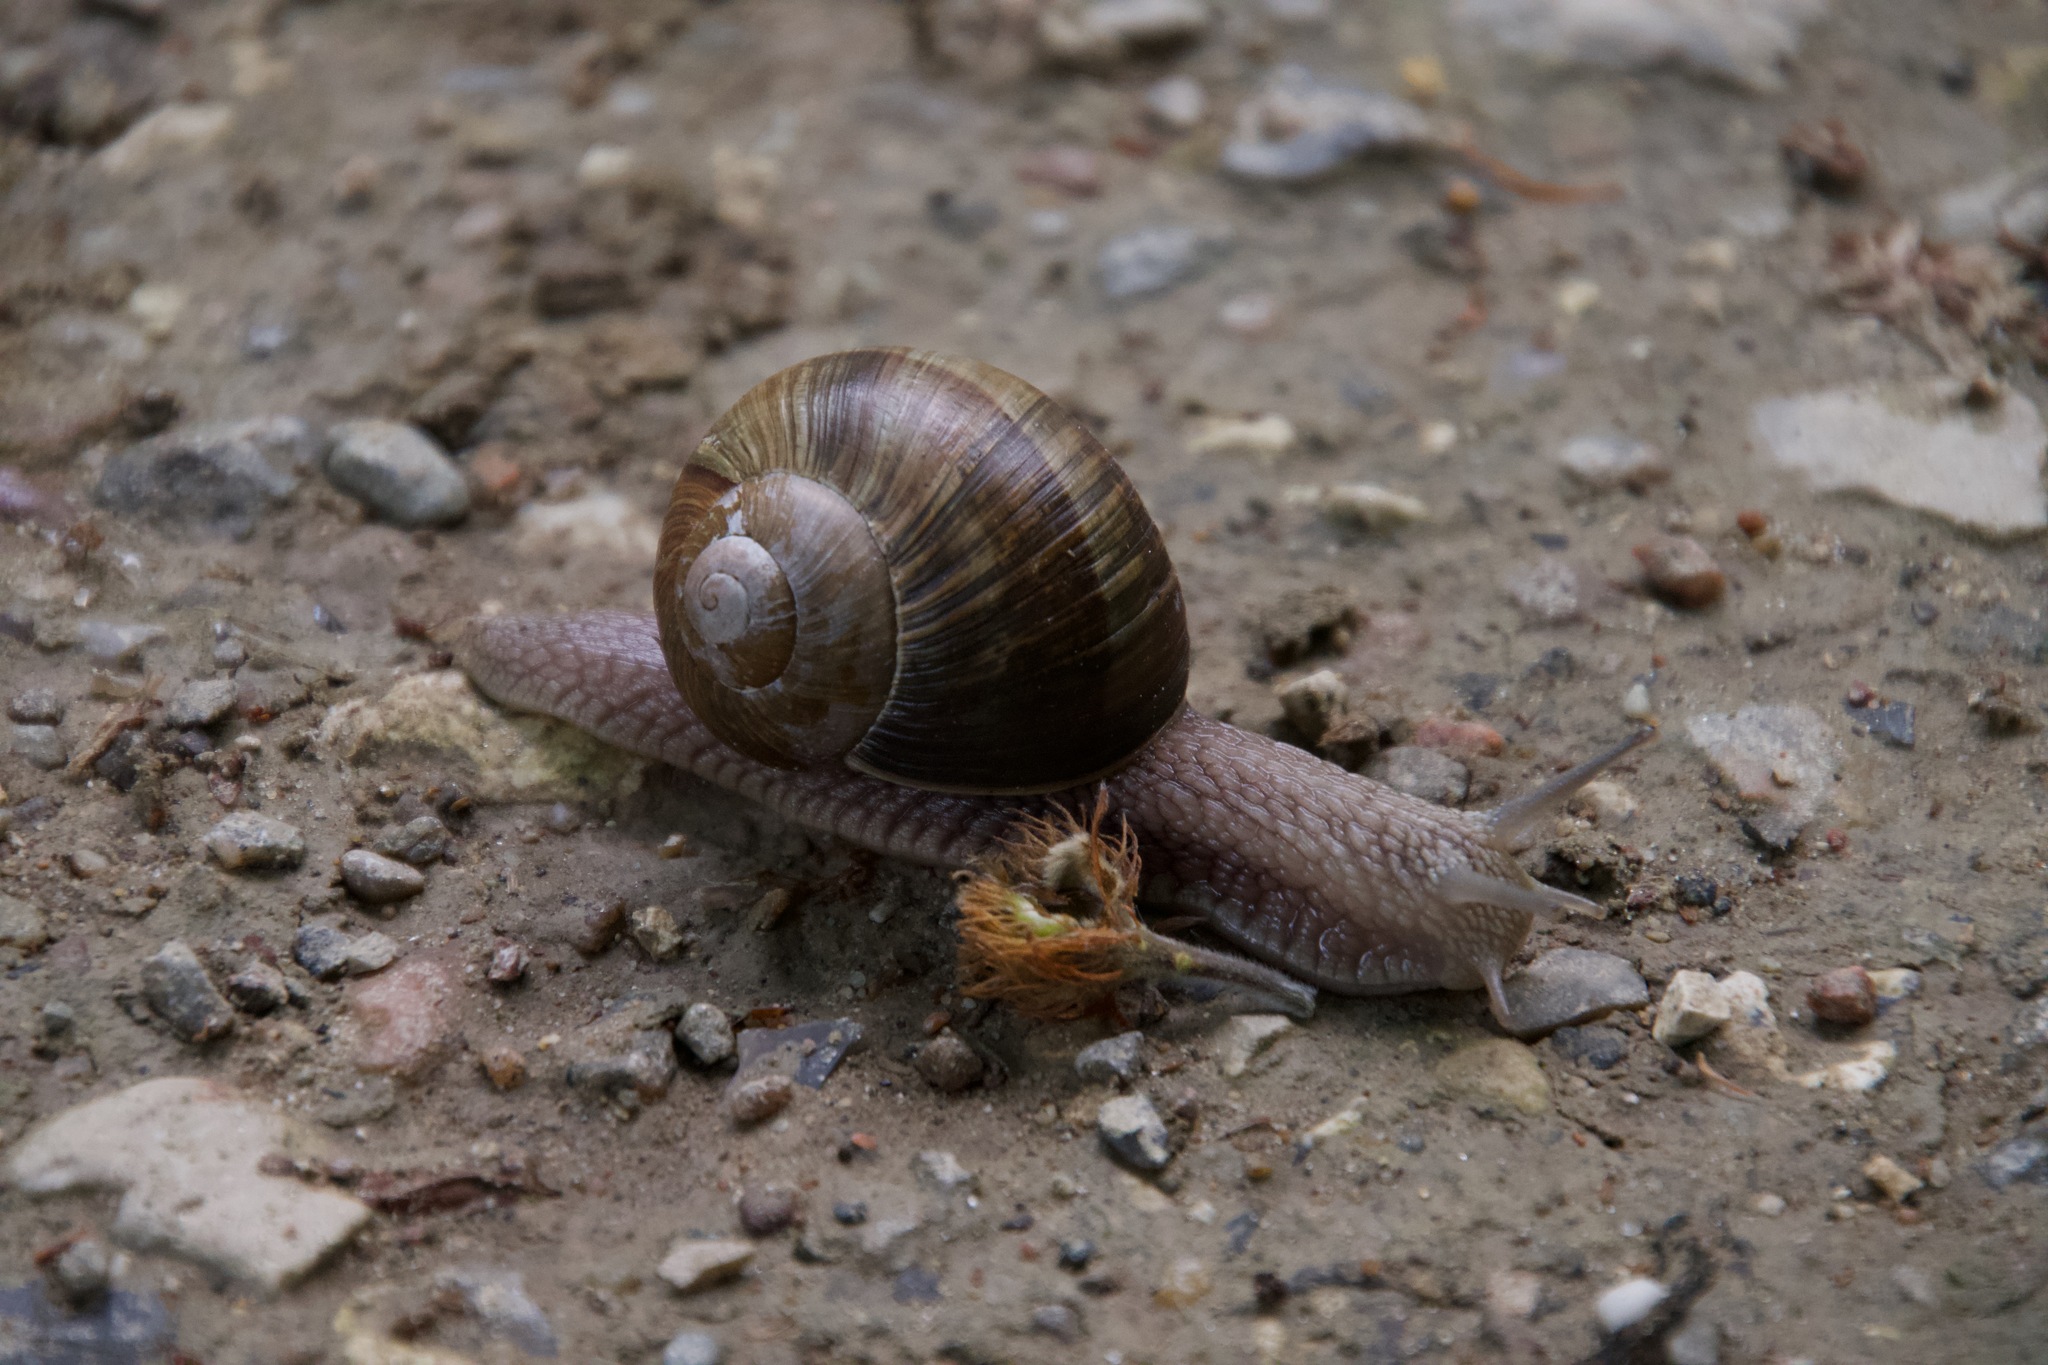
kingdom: Animalia
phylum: Mollusca
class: Gastropoda
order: Stylommatophora
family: Helicidae
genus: Helix
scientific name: Helix pomatia
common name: Roman snail
